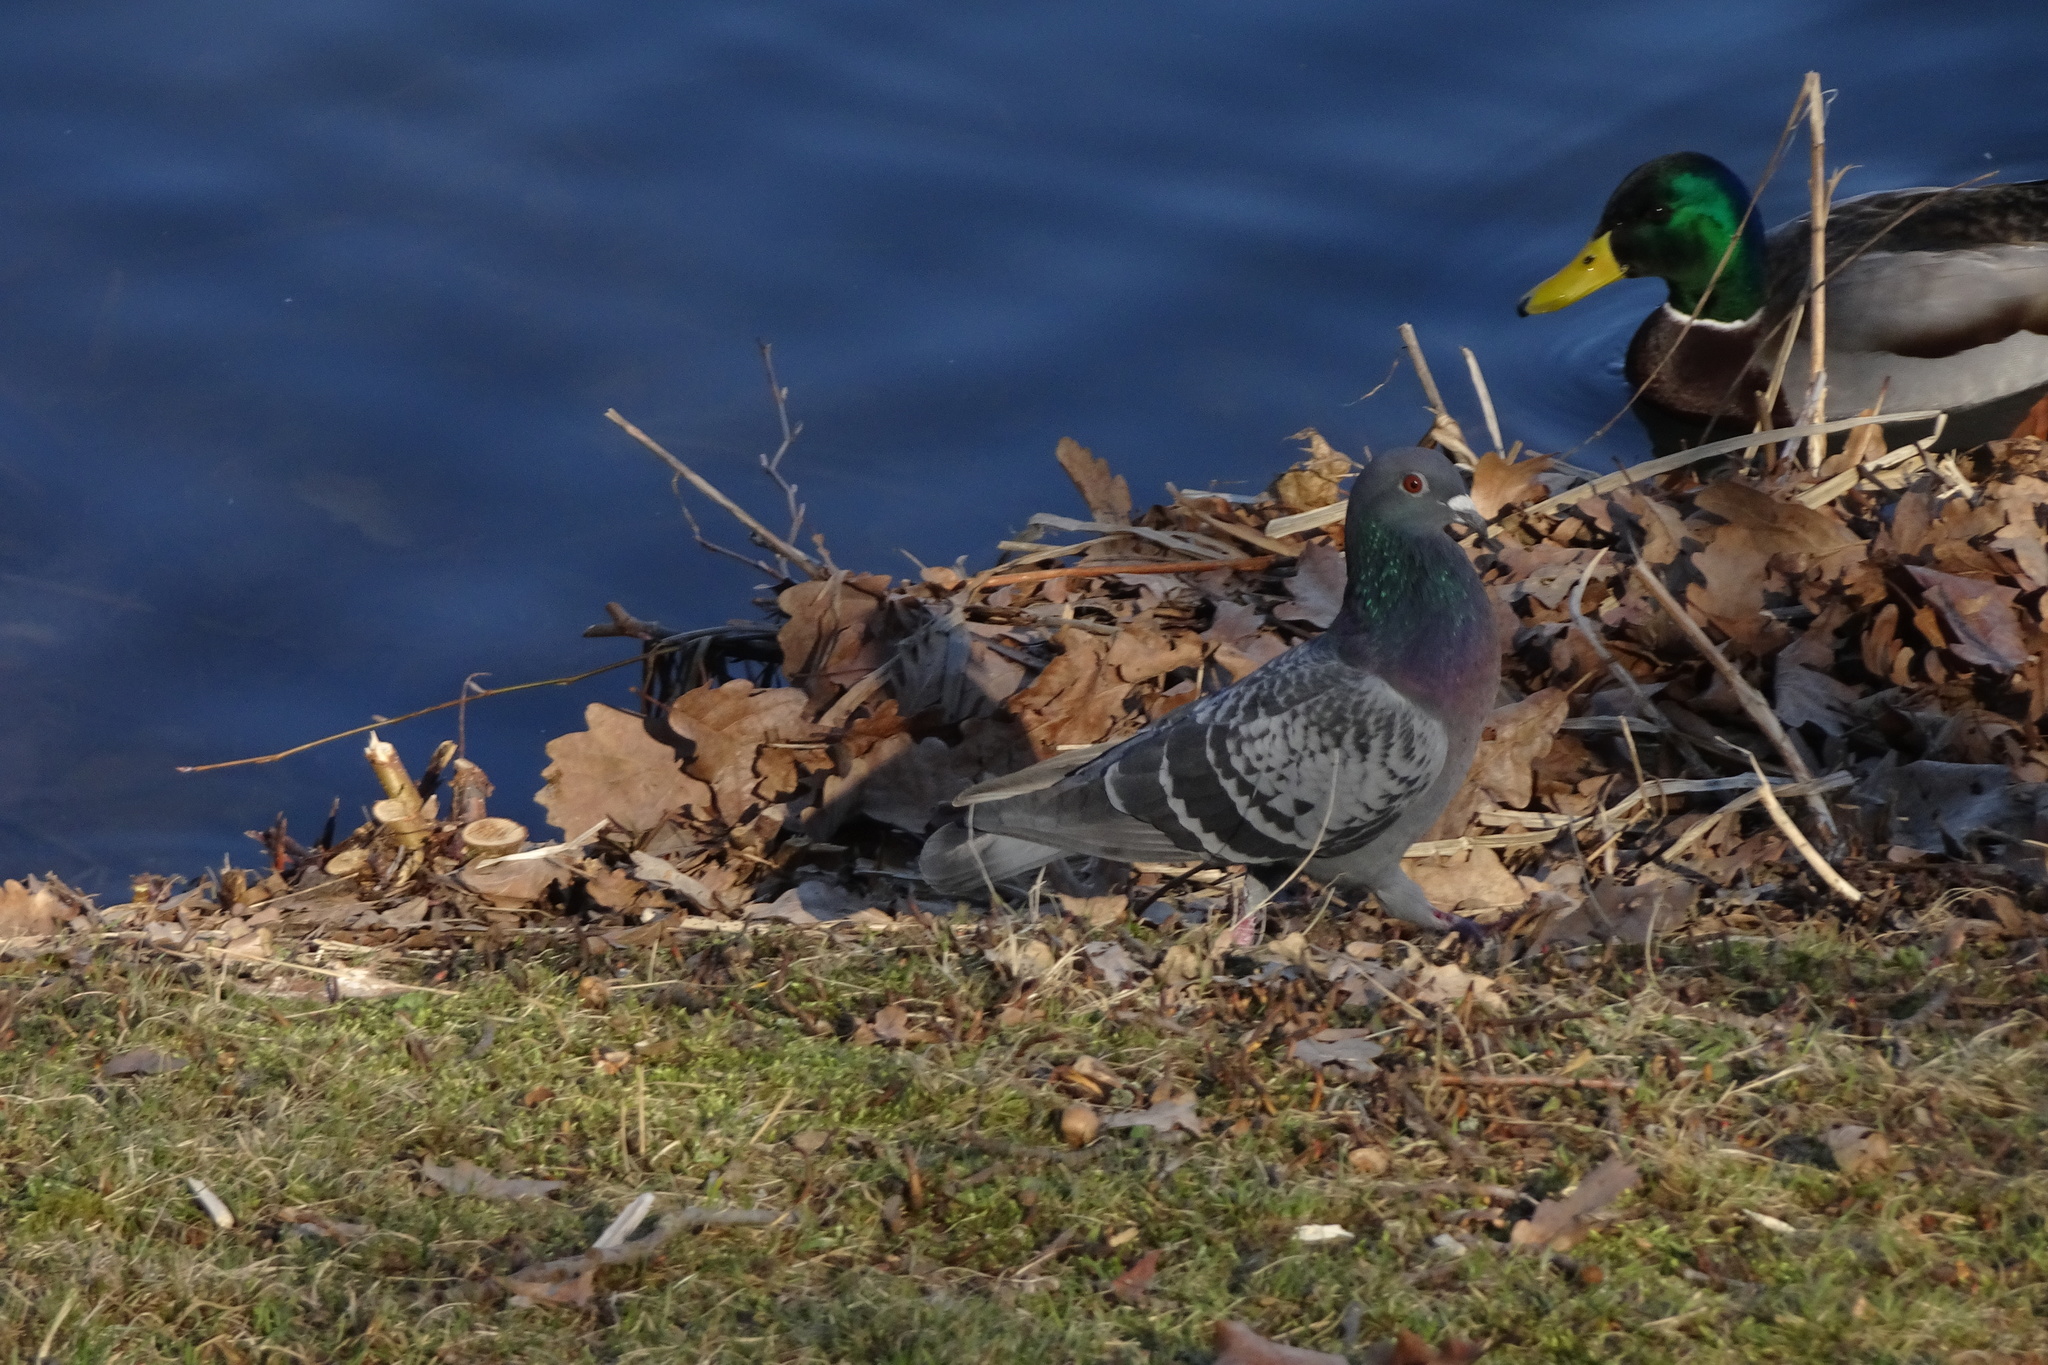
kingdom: Animalia
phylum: Chordata
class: Aves
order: Columbiformes
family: Columbidae
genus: Columba
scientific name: Columba livia
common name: Rock pigeon
